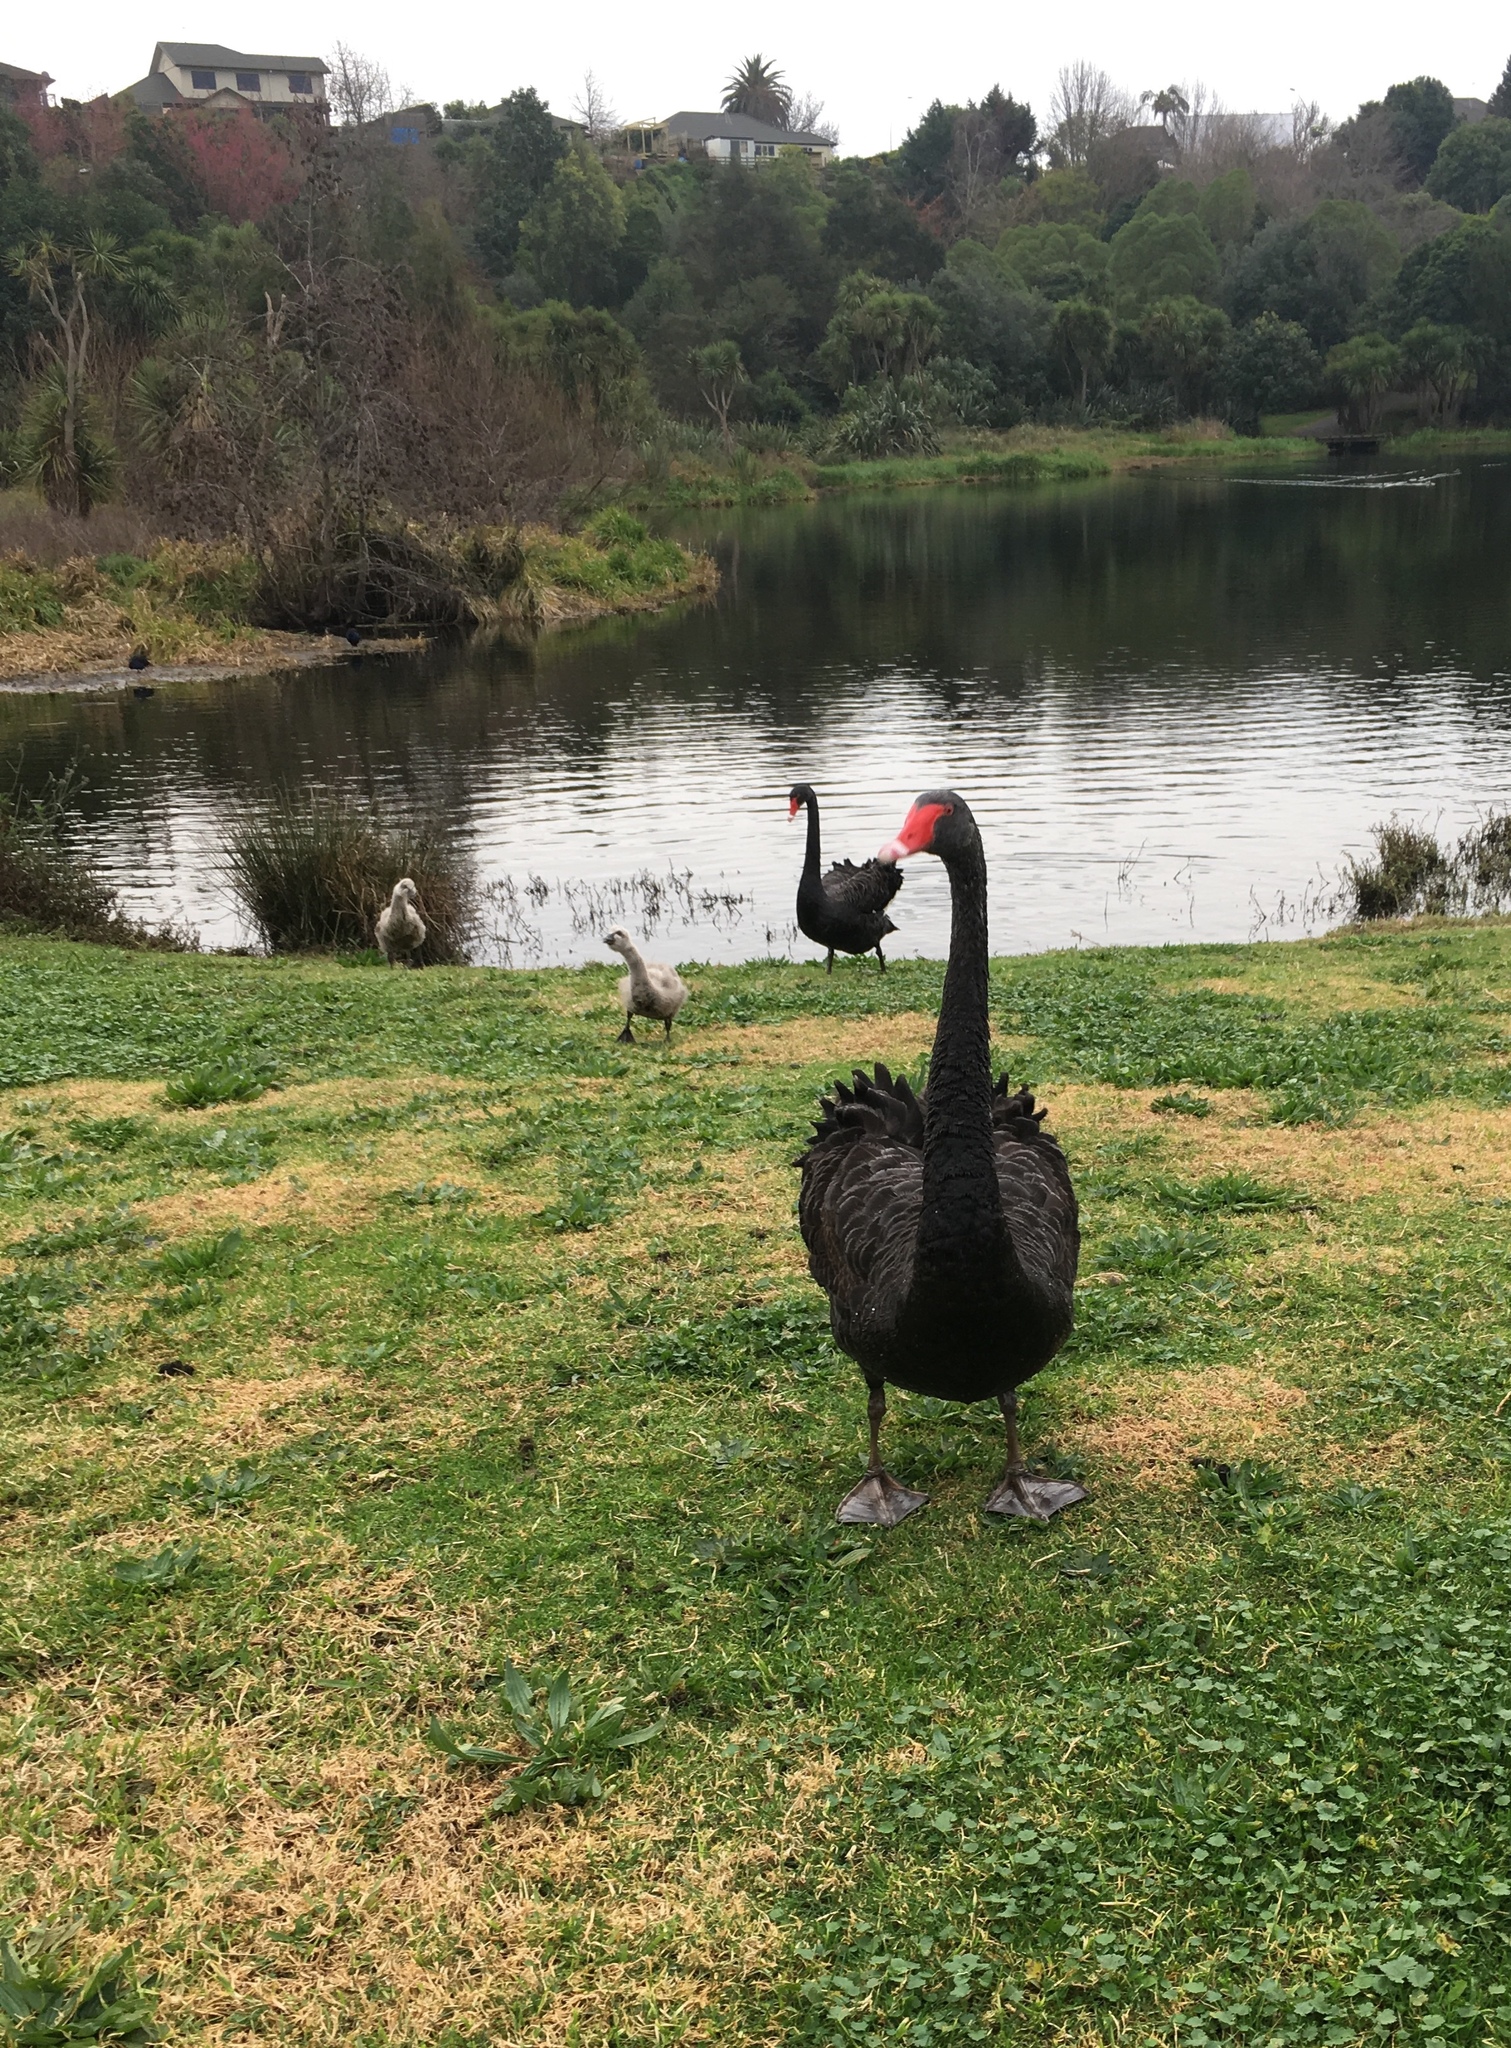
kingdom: Animalia
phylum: Chordata
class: Aves
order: Anseriformes
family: Anatidae
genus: Cygnus
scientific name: Cygnus atratus
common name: Black swan
